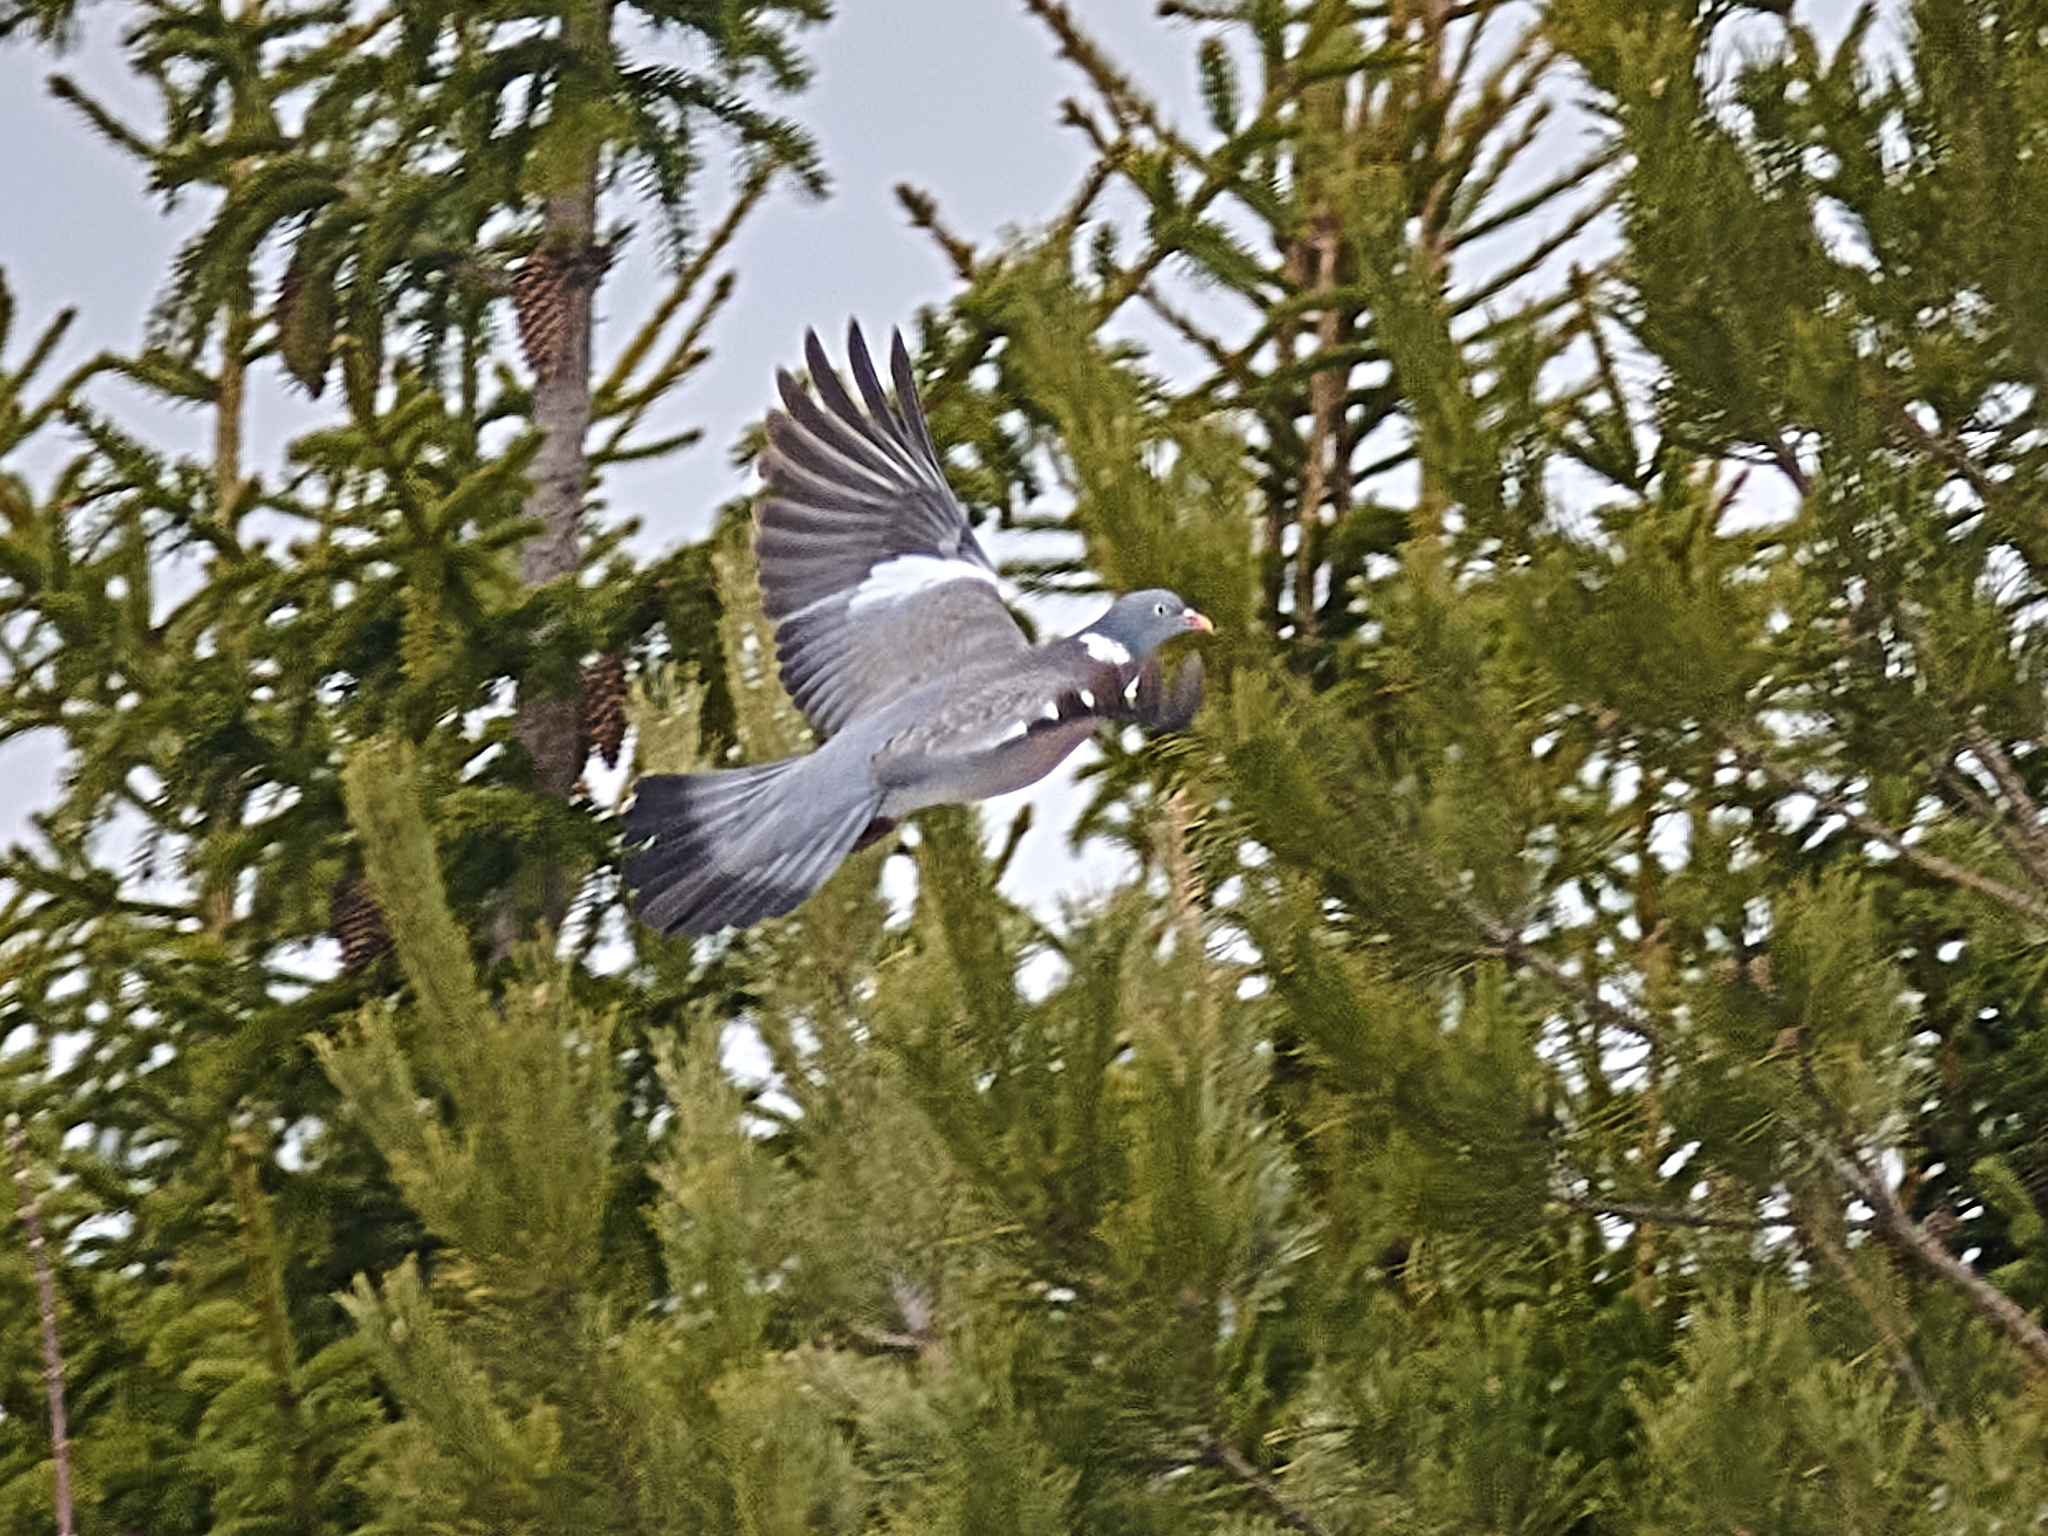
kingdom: Animalia
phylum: Chordata
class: Aves
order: Columbiformes
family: Columbidae
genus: Columba
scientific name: Columba palumbus
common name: Common wood pigeon
